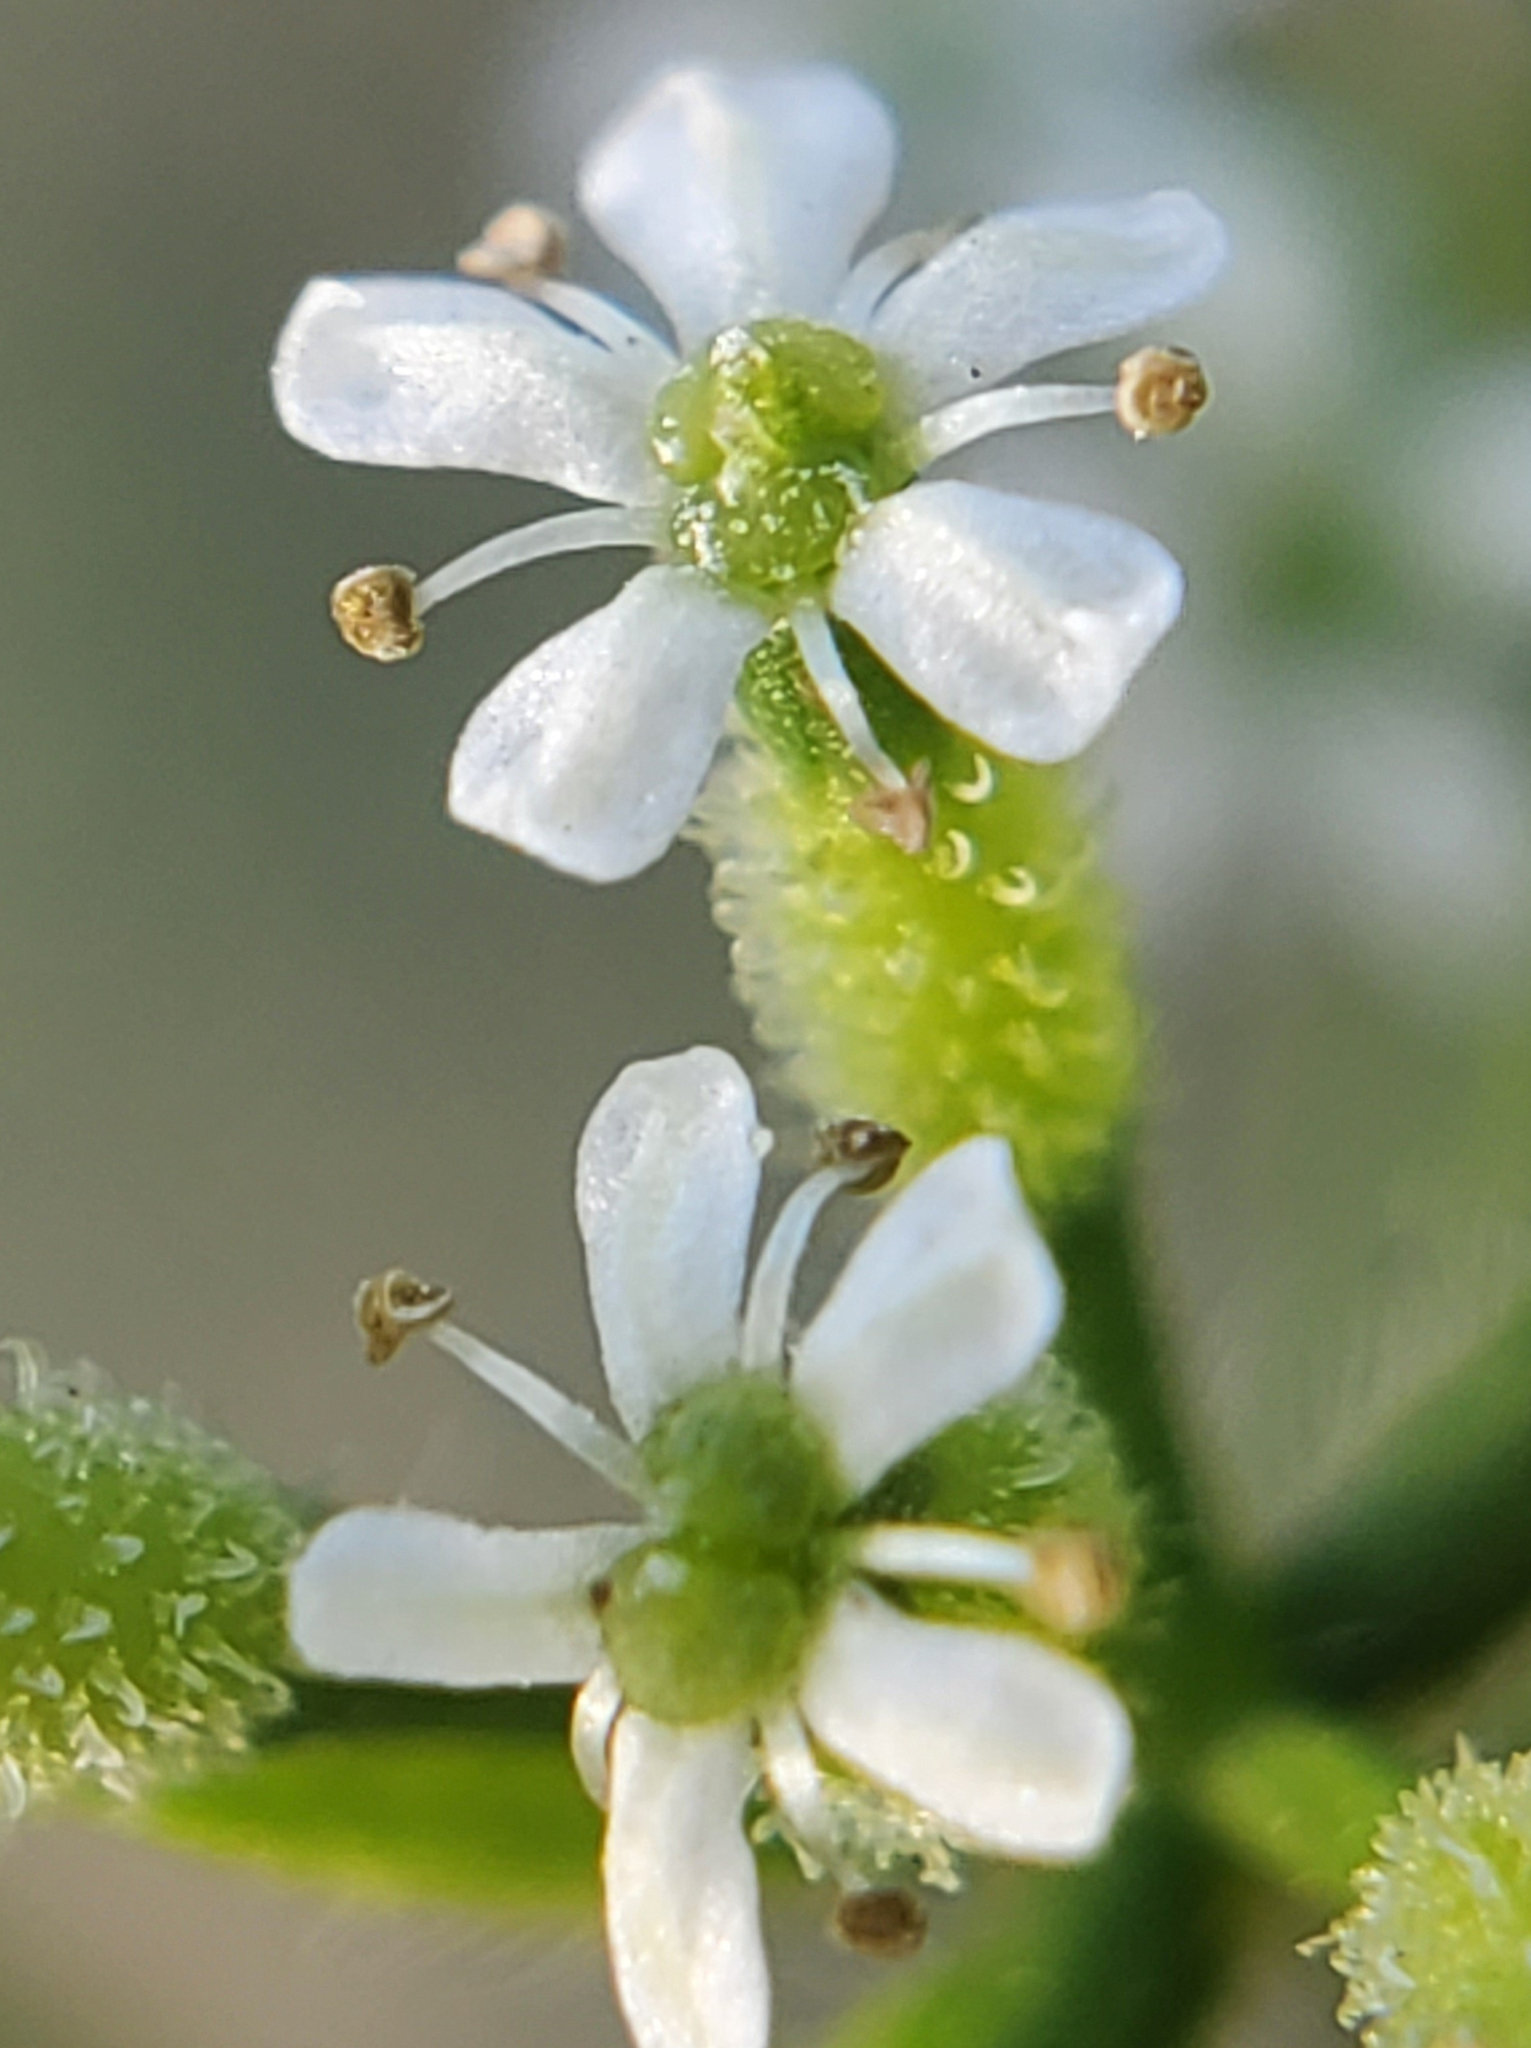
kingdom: Plantae
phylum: Tracheophyta
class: Magnoliopsida
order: Apiales
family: Apiaceae
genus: Anthriscus
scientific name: Anthriscus caucalis
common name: Bur chervil
